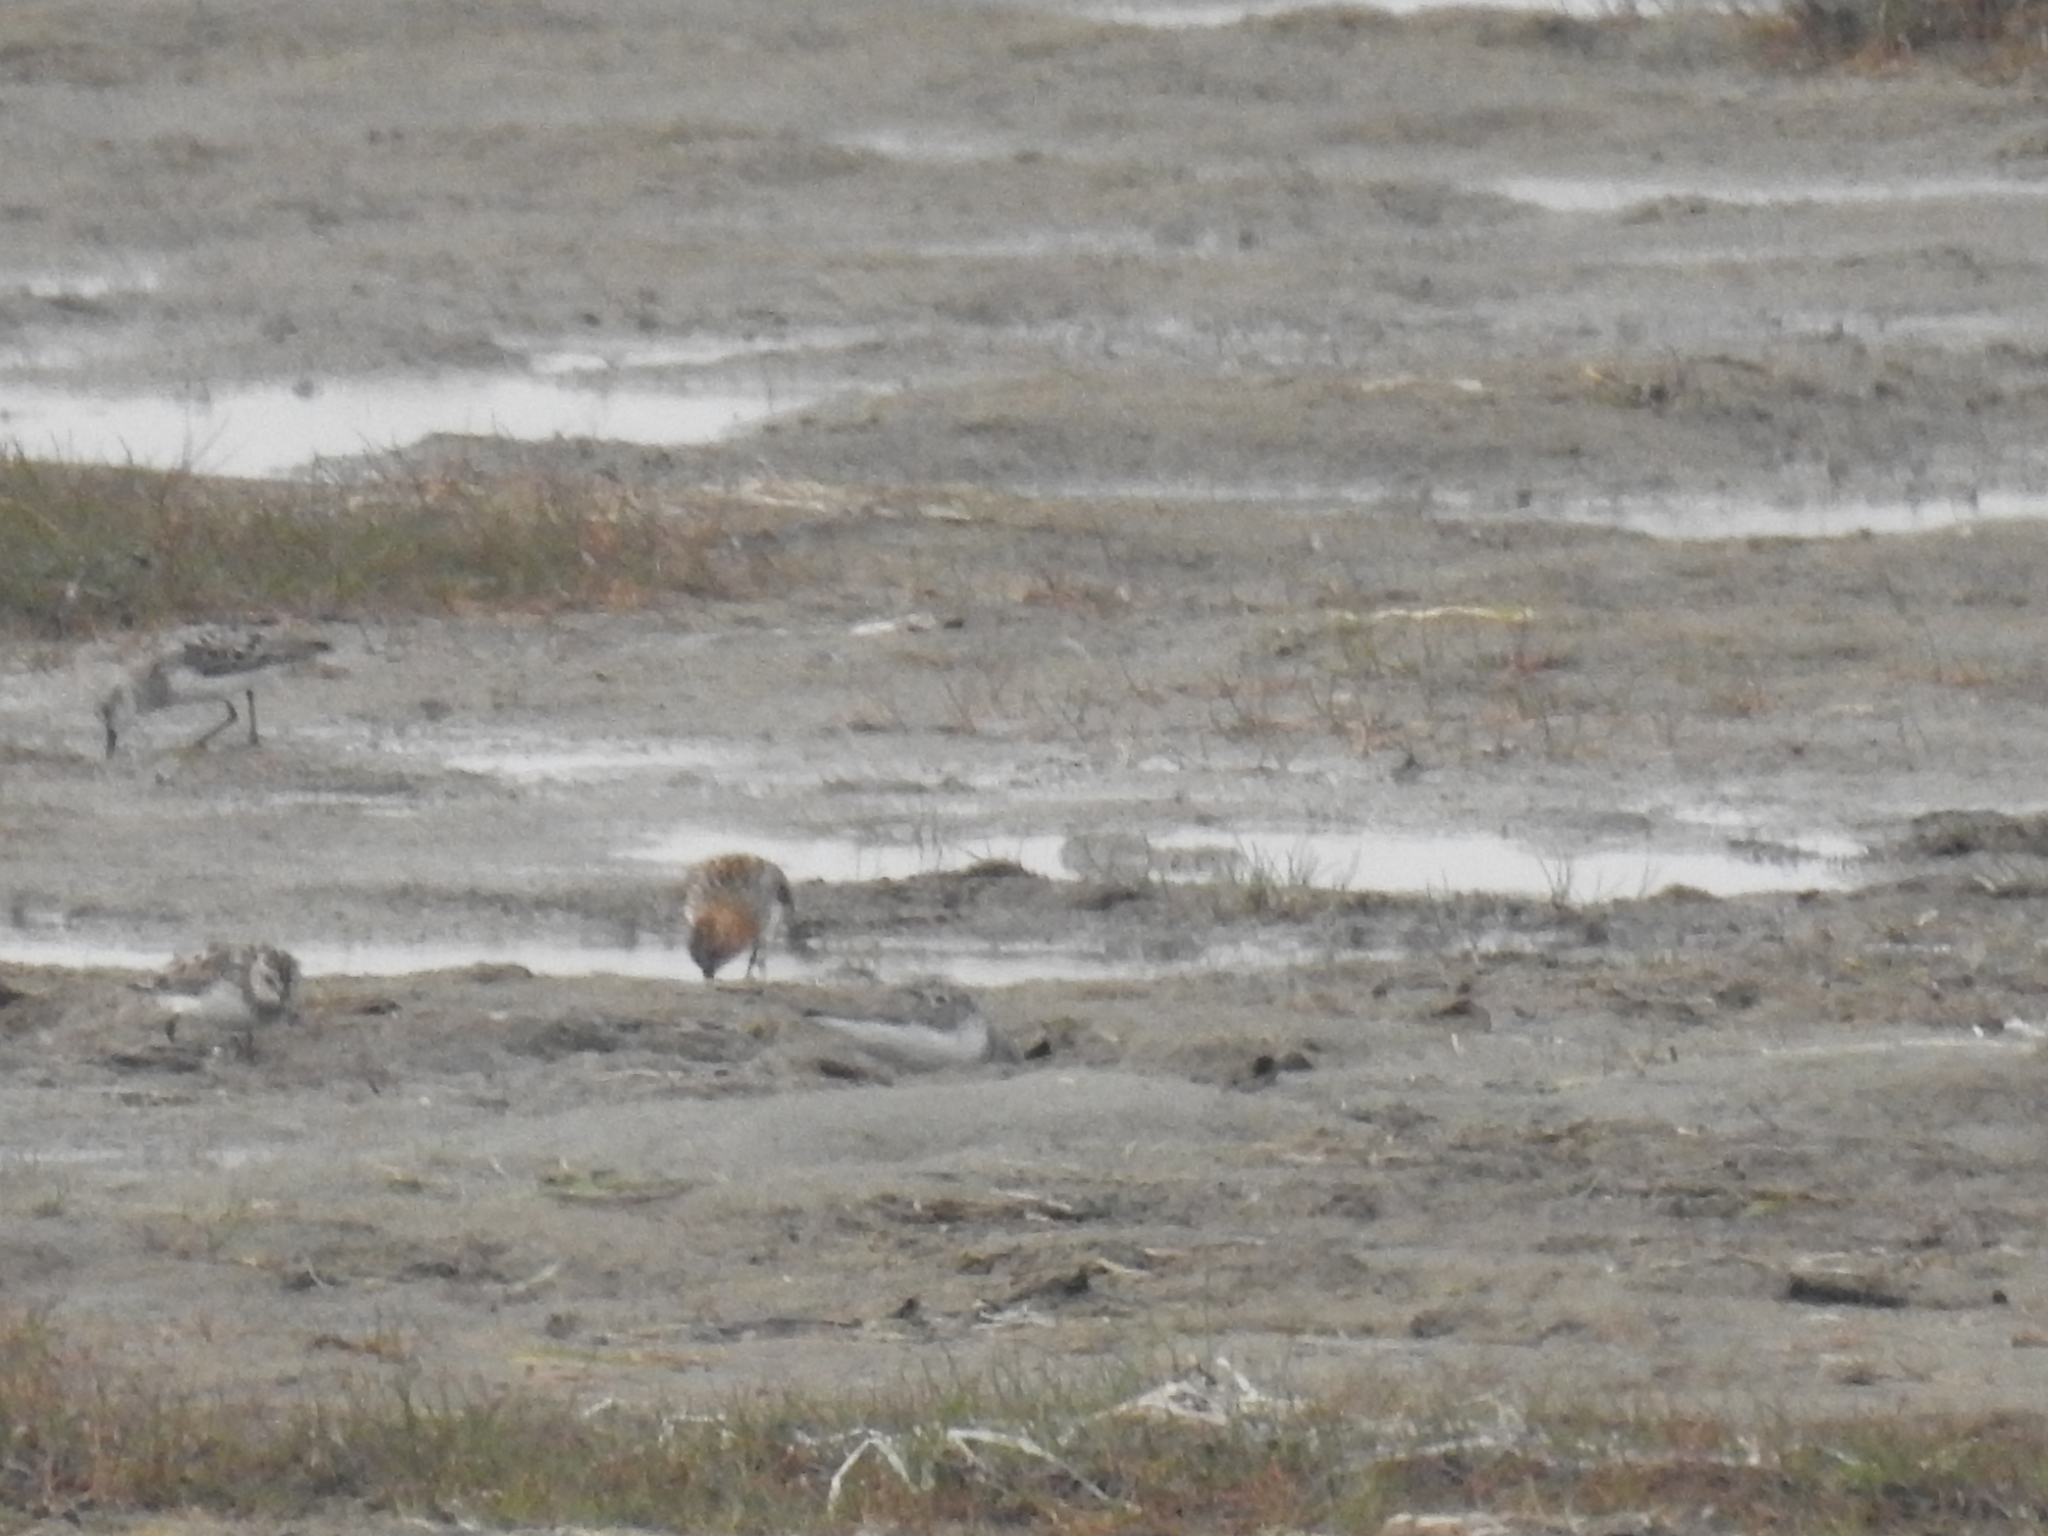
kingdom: Animalia
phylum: Chordata
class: Aves
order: Charadriiformes
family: Scolopacidae
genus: Calidris
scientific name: Calidris ruficollis
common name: Red-necked stint
